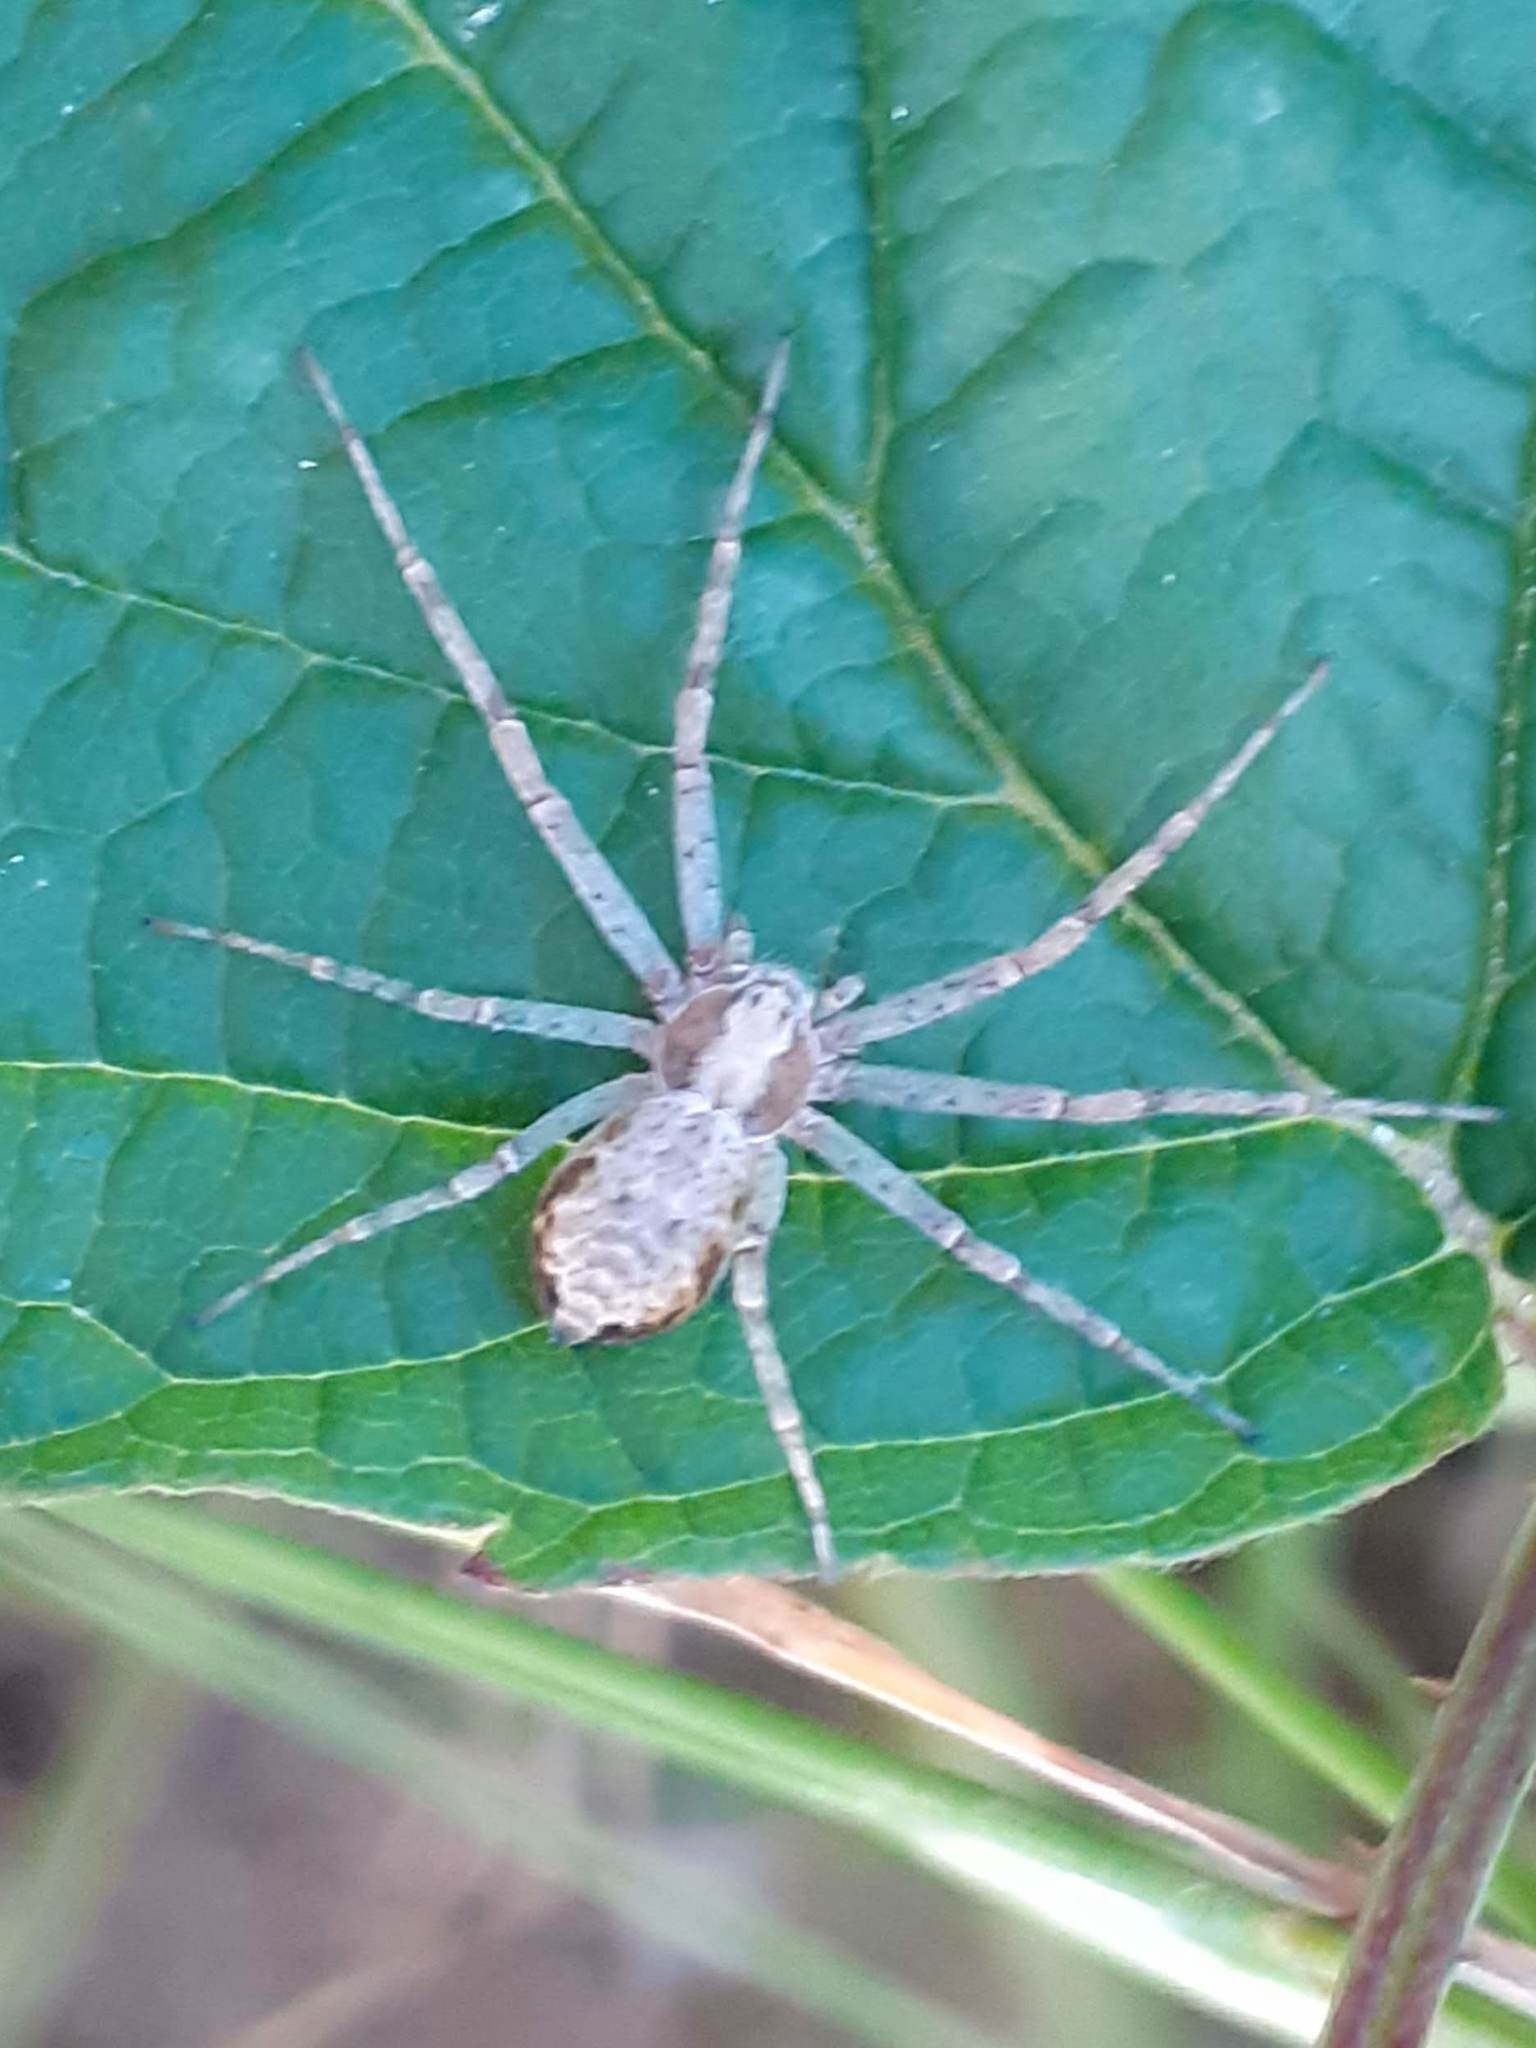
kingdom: Animalia
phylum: Arthropoda
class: Arachnida
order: Araneae
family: Philodromidae
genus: Philodromus
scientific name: Philodromus
